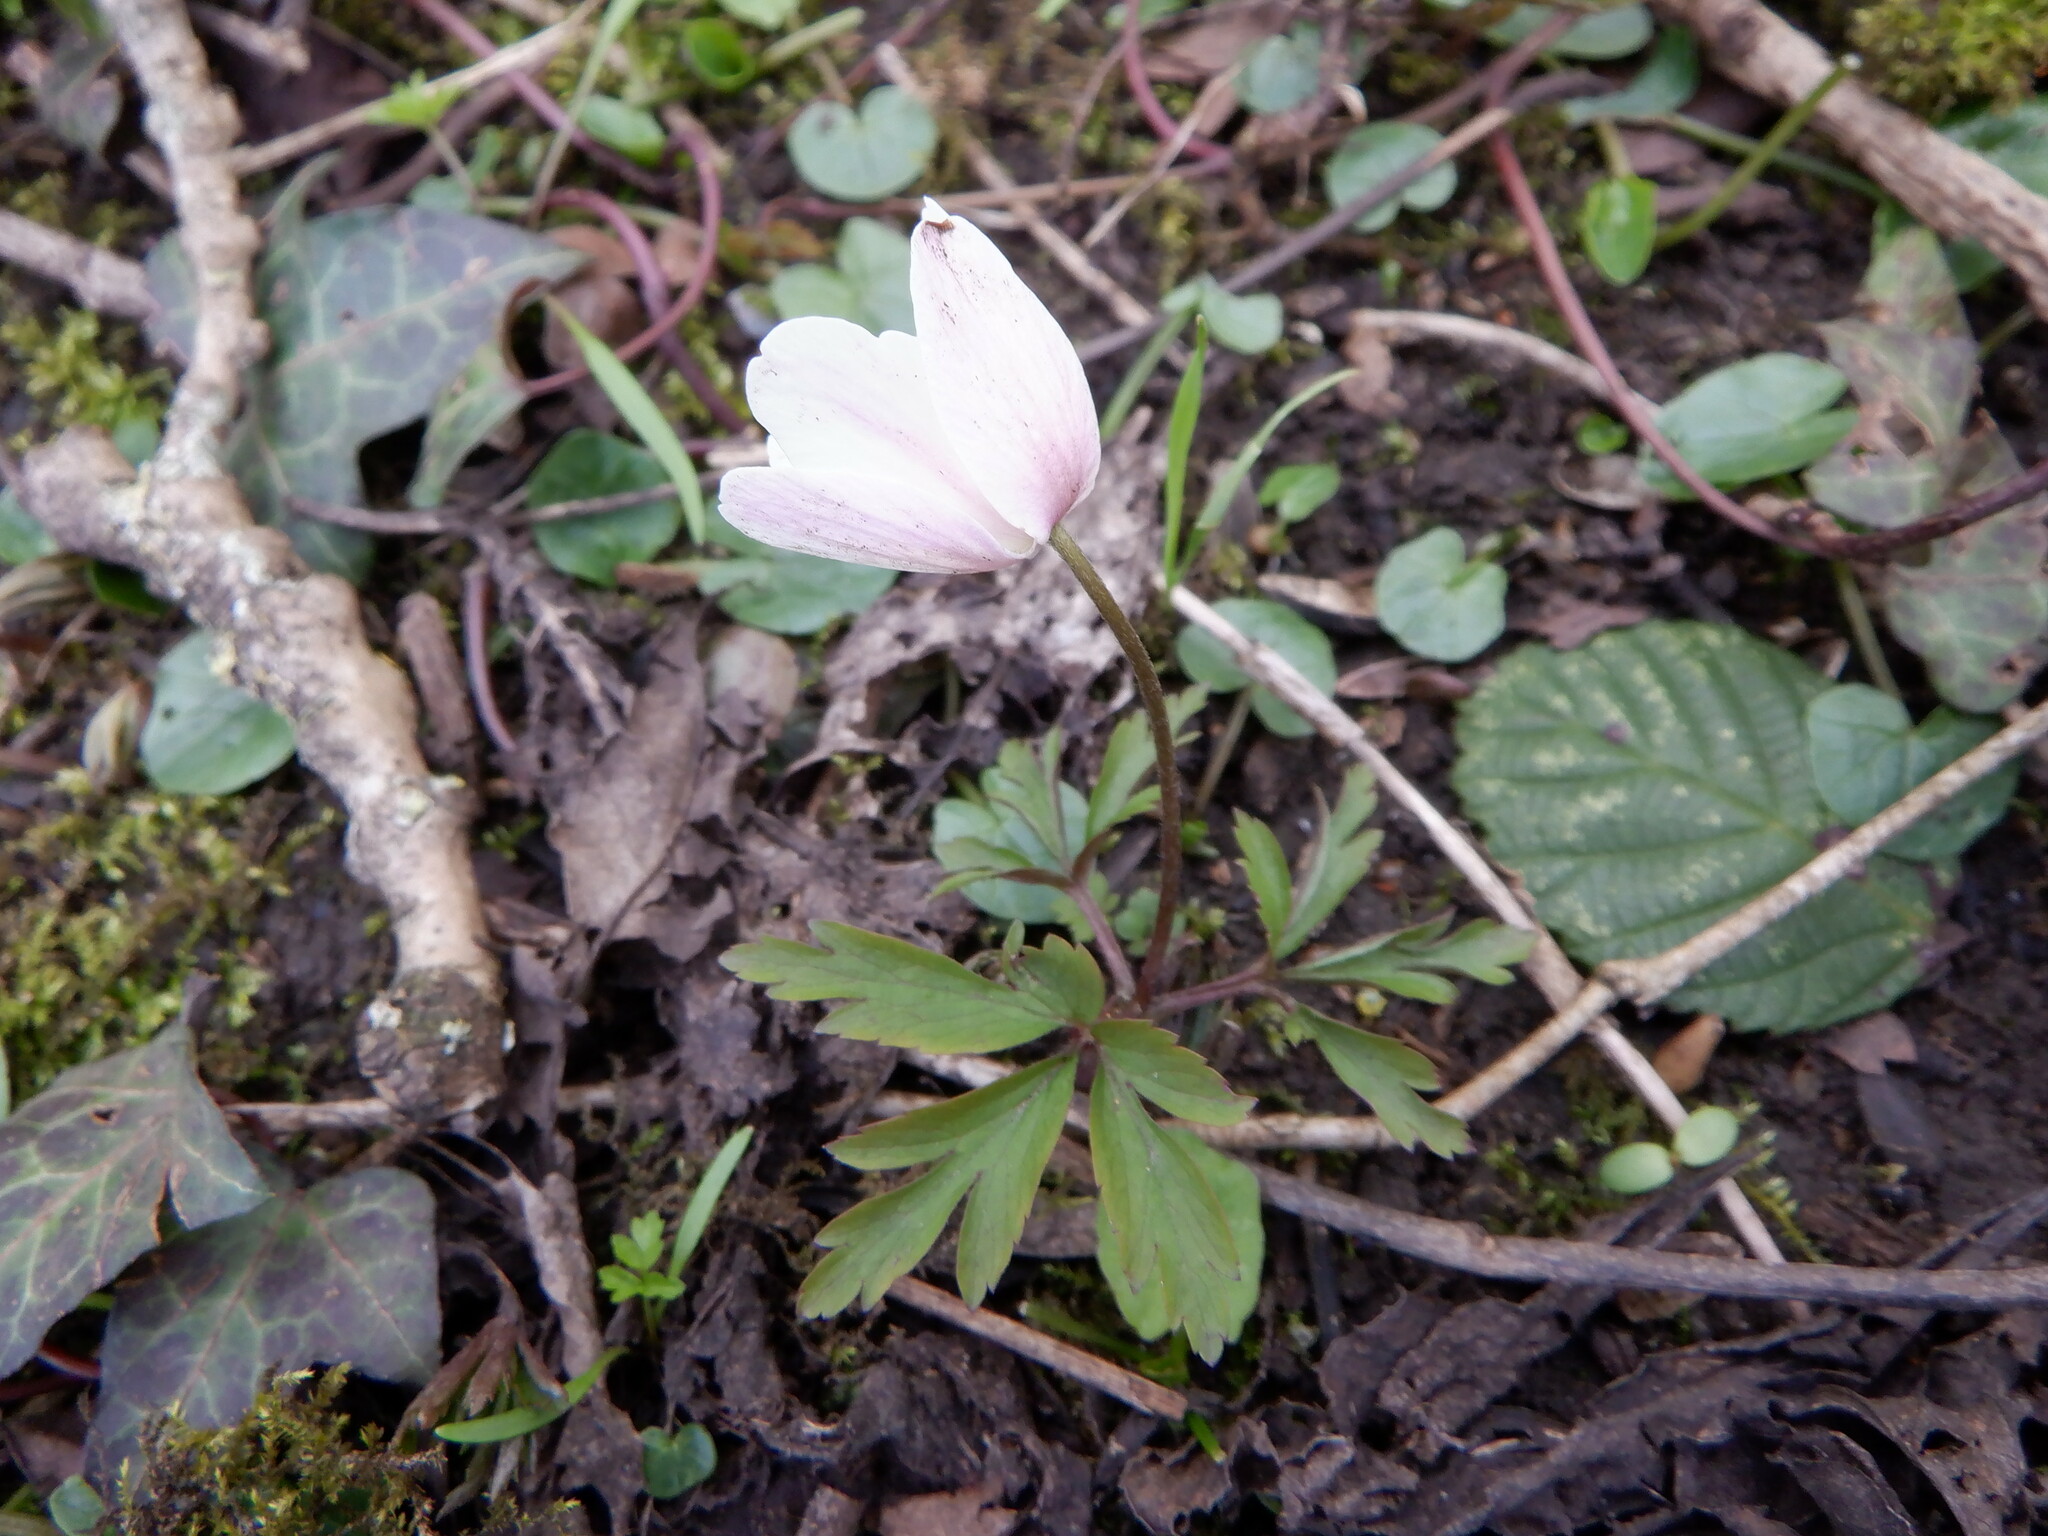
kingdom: Plantae
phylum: Tracheophyta
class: Magnoliopsida
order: Ranunculales
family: Ranunculaceae
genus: Anemone
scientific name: Anemone nemorosa
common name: Wood anemone
